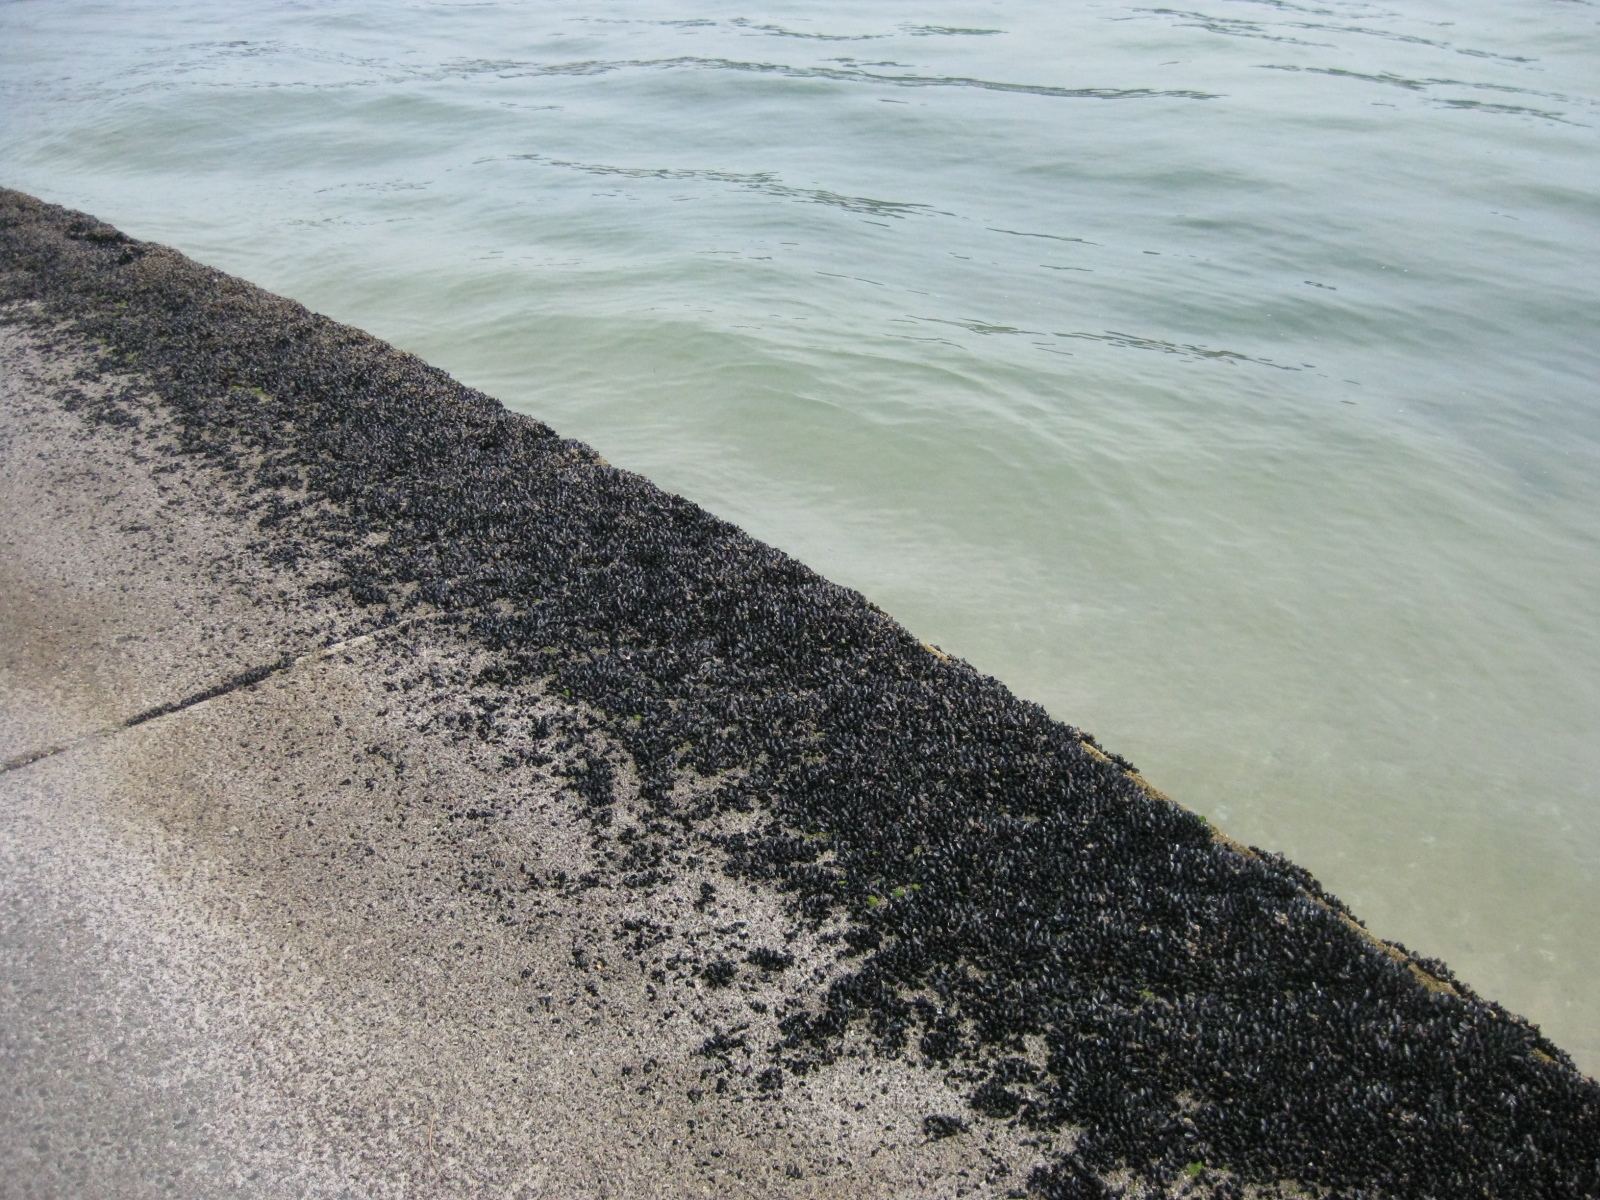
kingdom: Animalia
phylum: Mollusca
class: Bivalvia
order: Mytilida
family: Mytilidae
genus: Xenostrobus
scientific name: Xenostrobus neozelanicus
